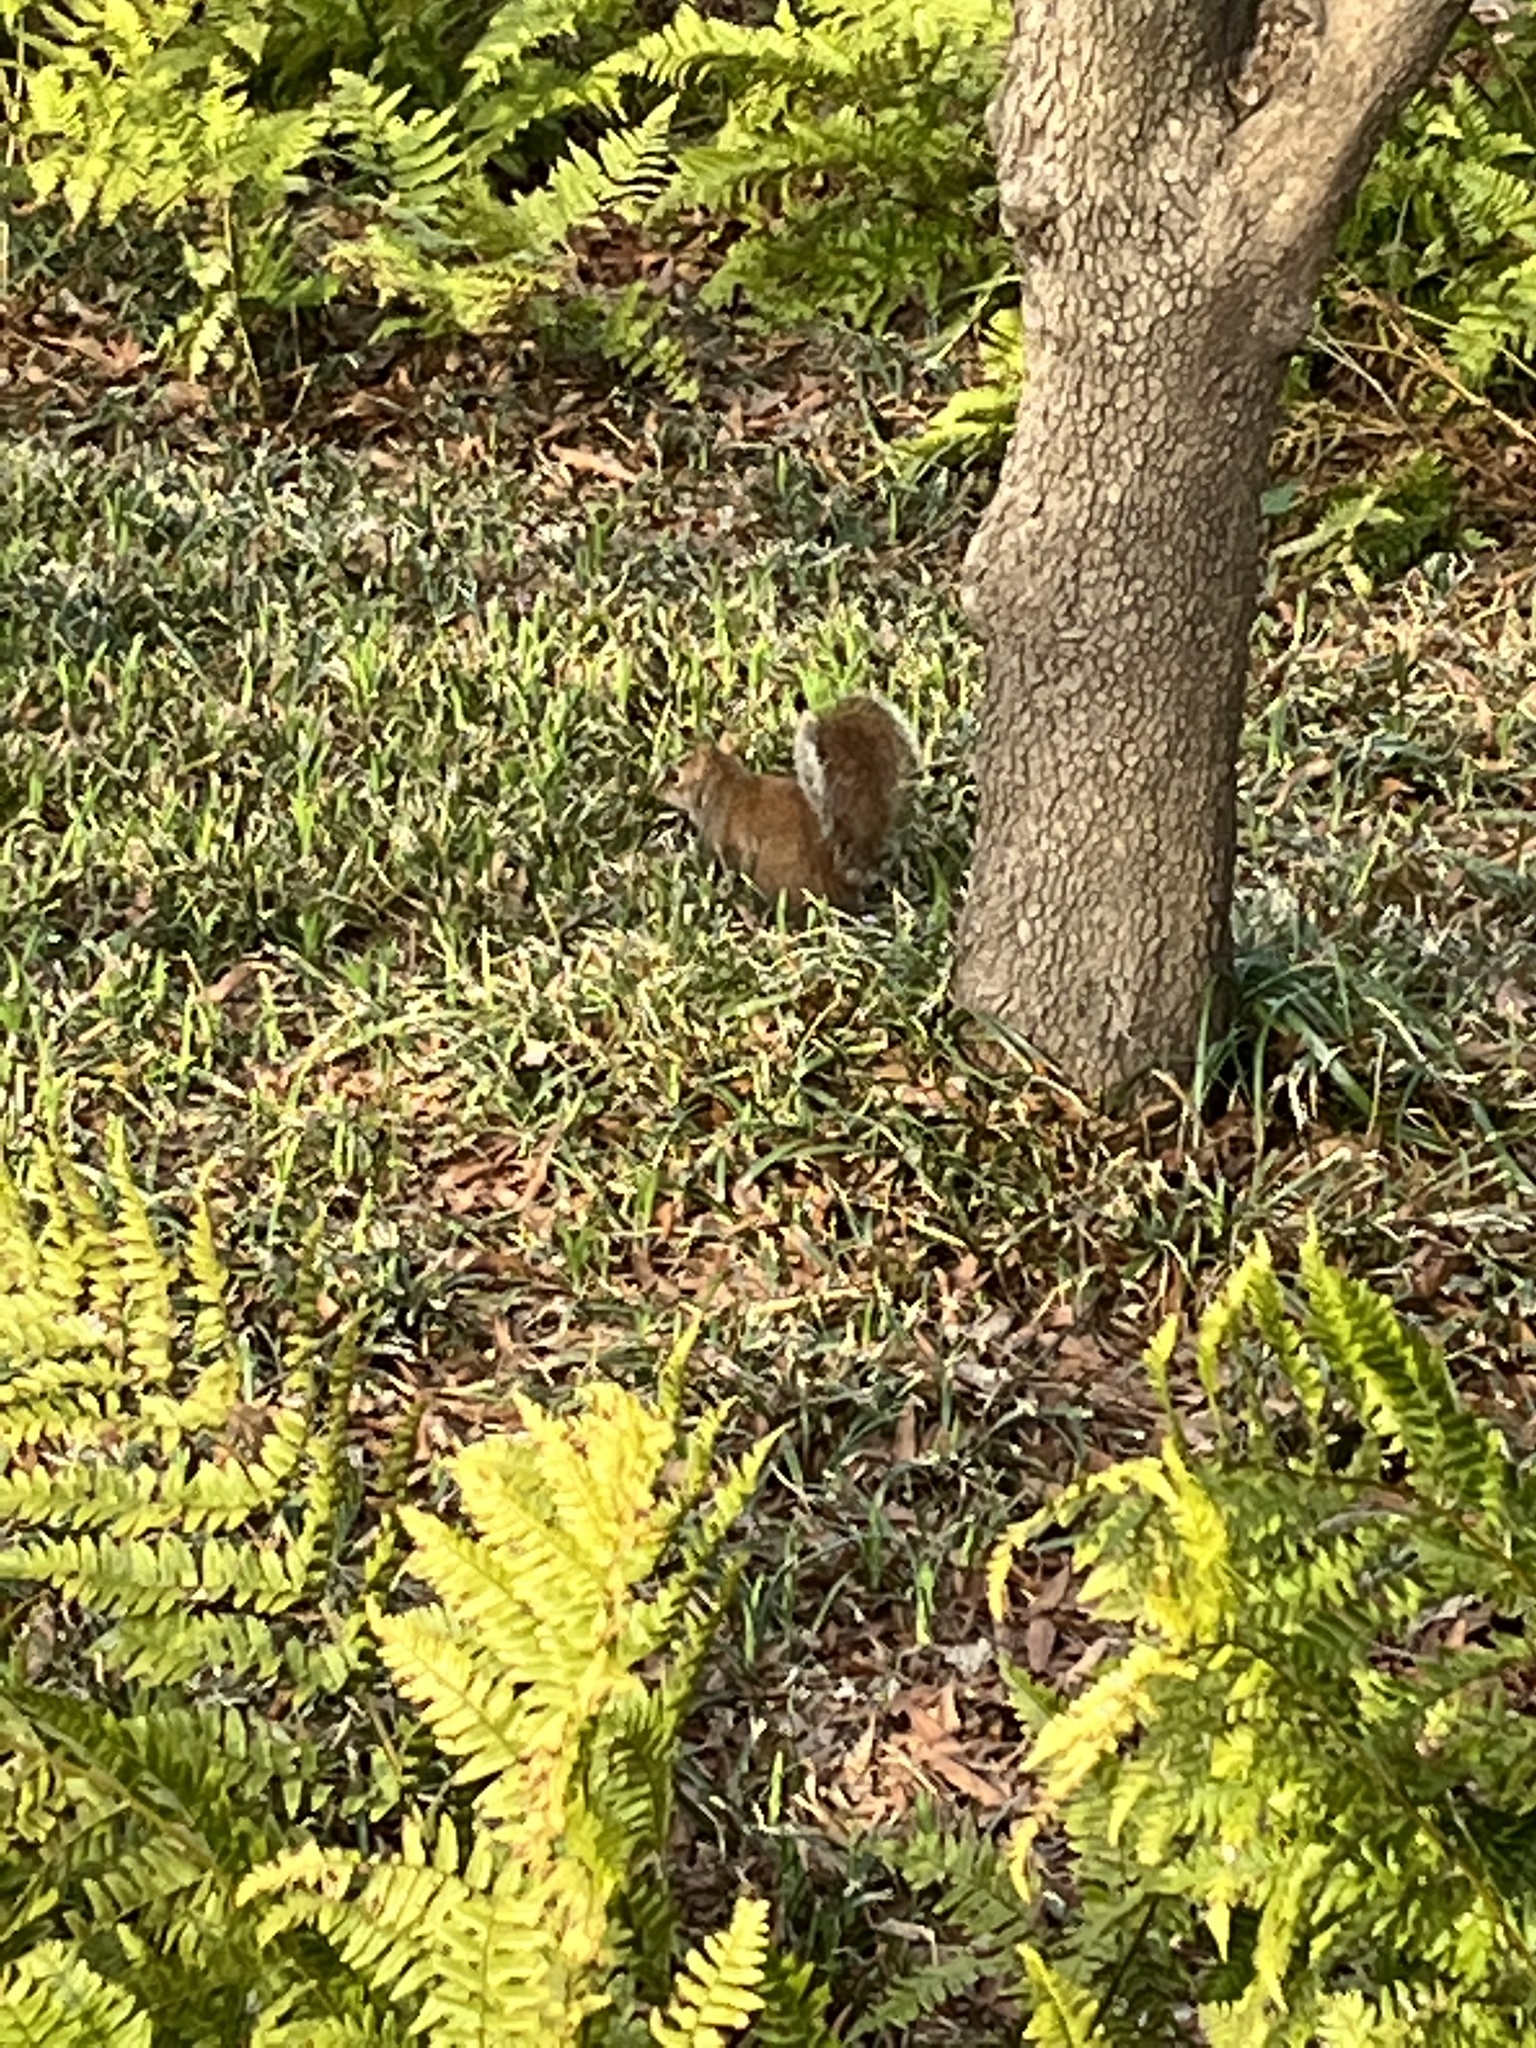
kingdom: Animalia
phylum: Chordata
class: Mammalia
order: Rodentia
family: Sciuridae
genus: Sciurus
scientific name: Sciurus carolinensis
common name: Eastern gray squirrel
